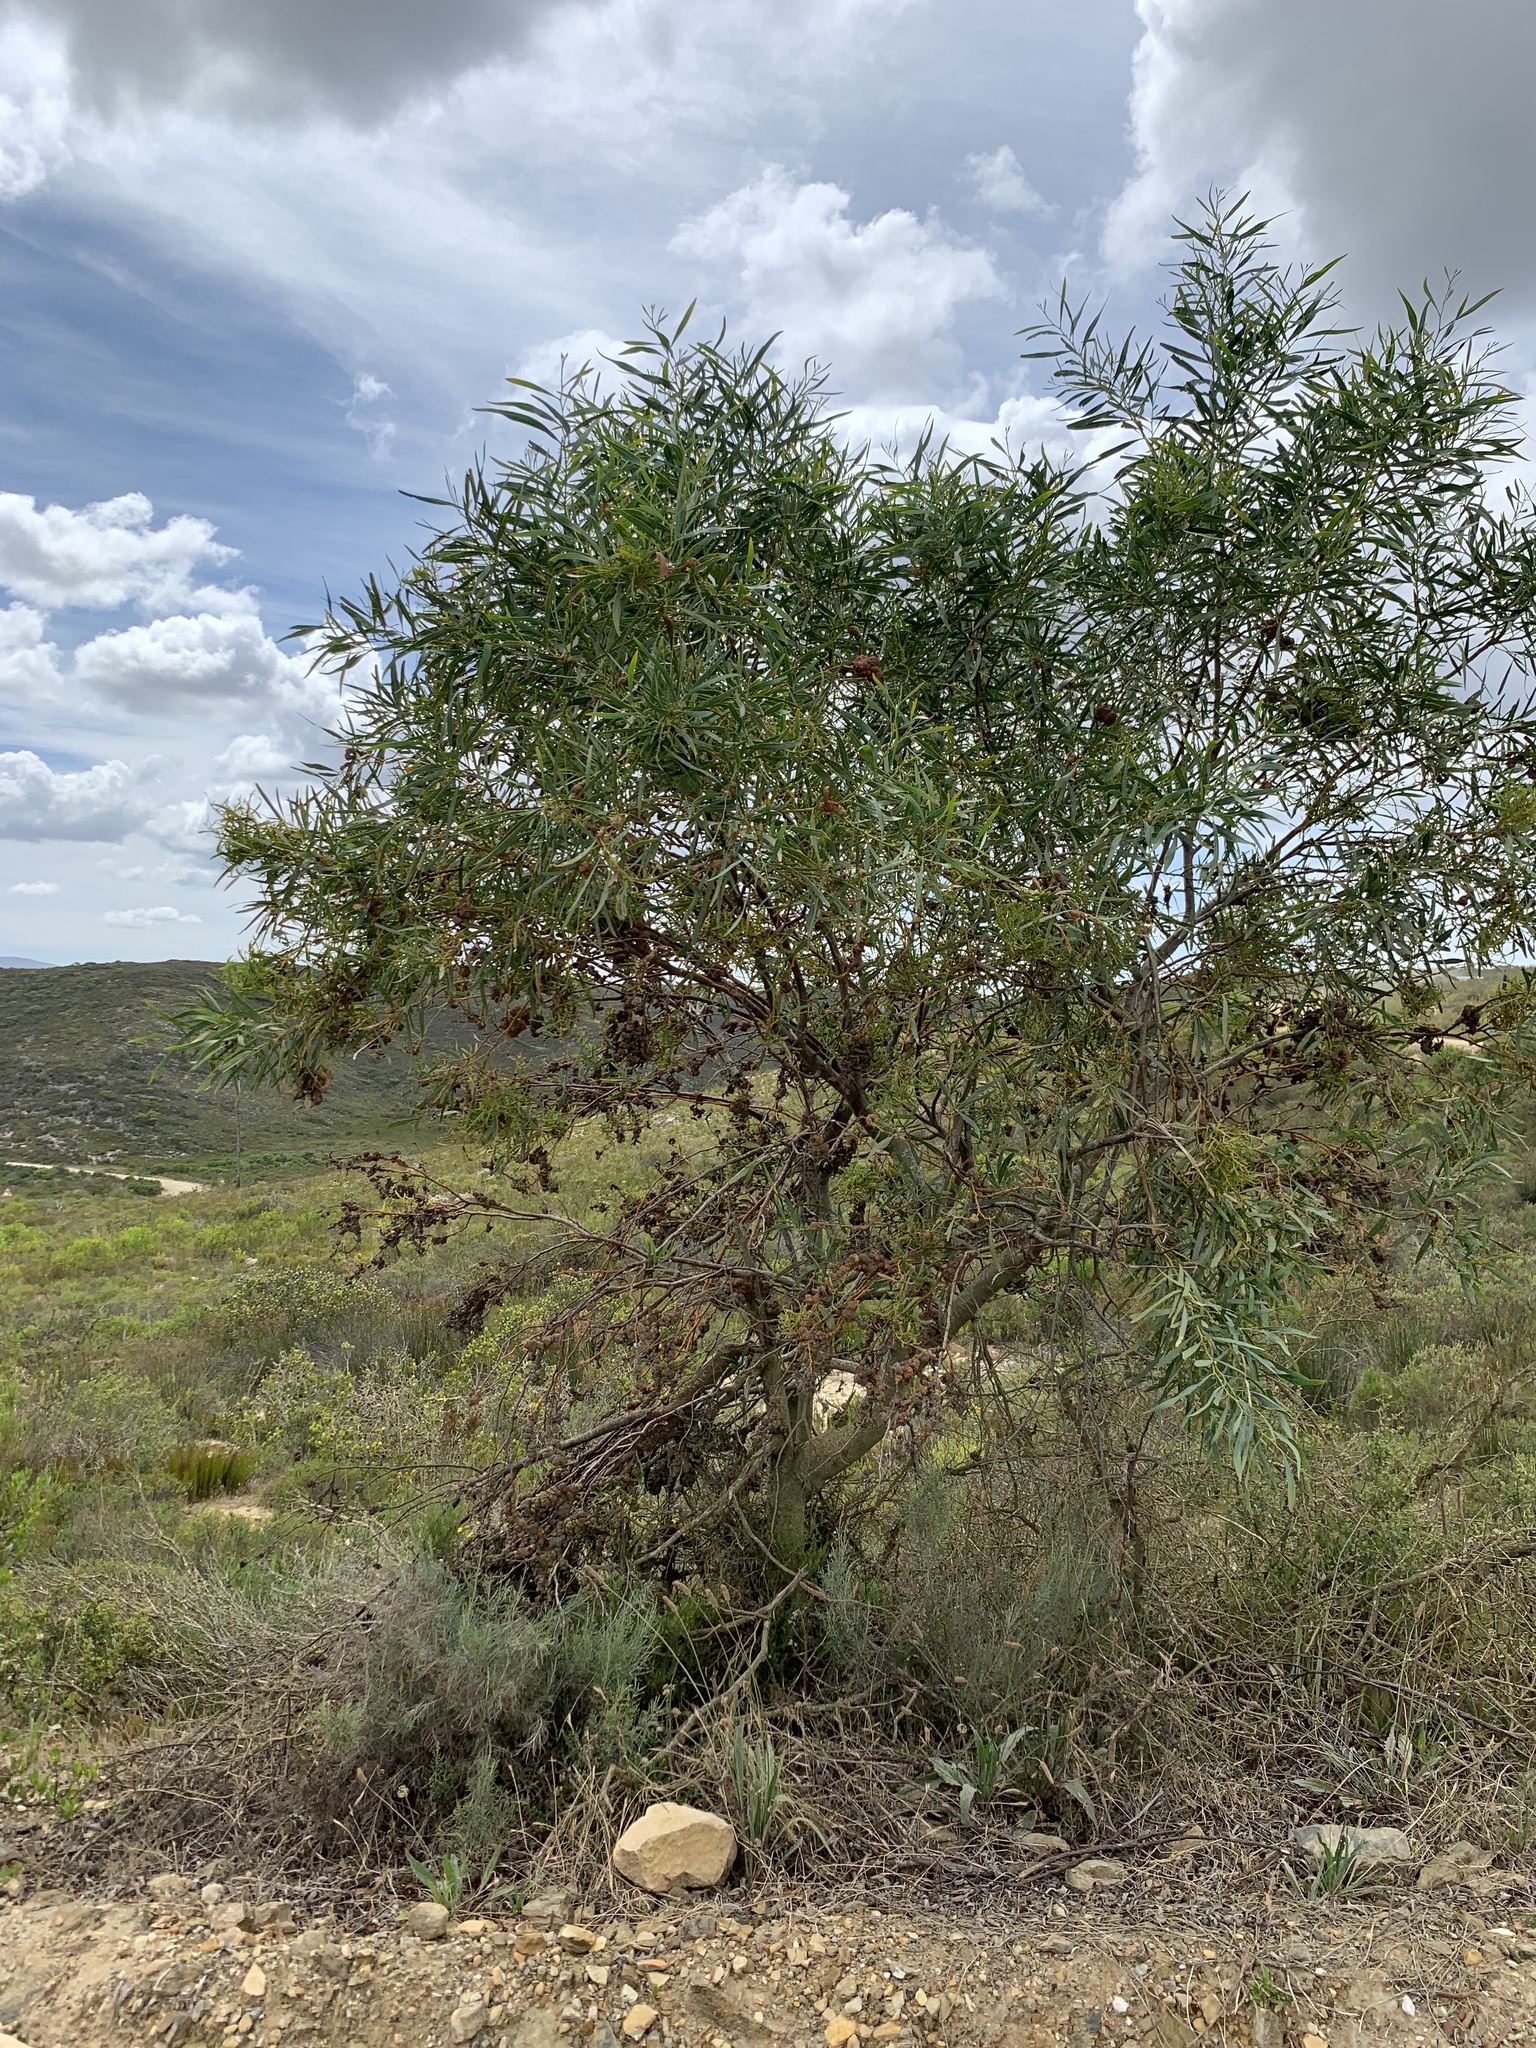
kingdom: Plantae
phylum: Tracheophyta
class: Magnoliopsida
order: Fabales
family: Fabaceae
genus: Acacia
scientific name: Acacia saligna
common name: Orange wattle
